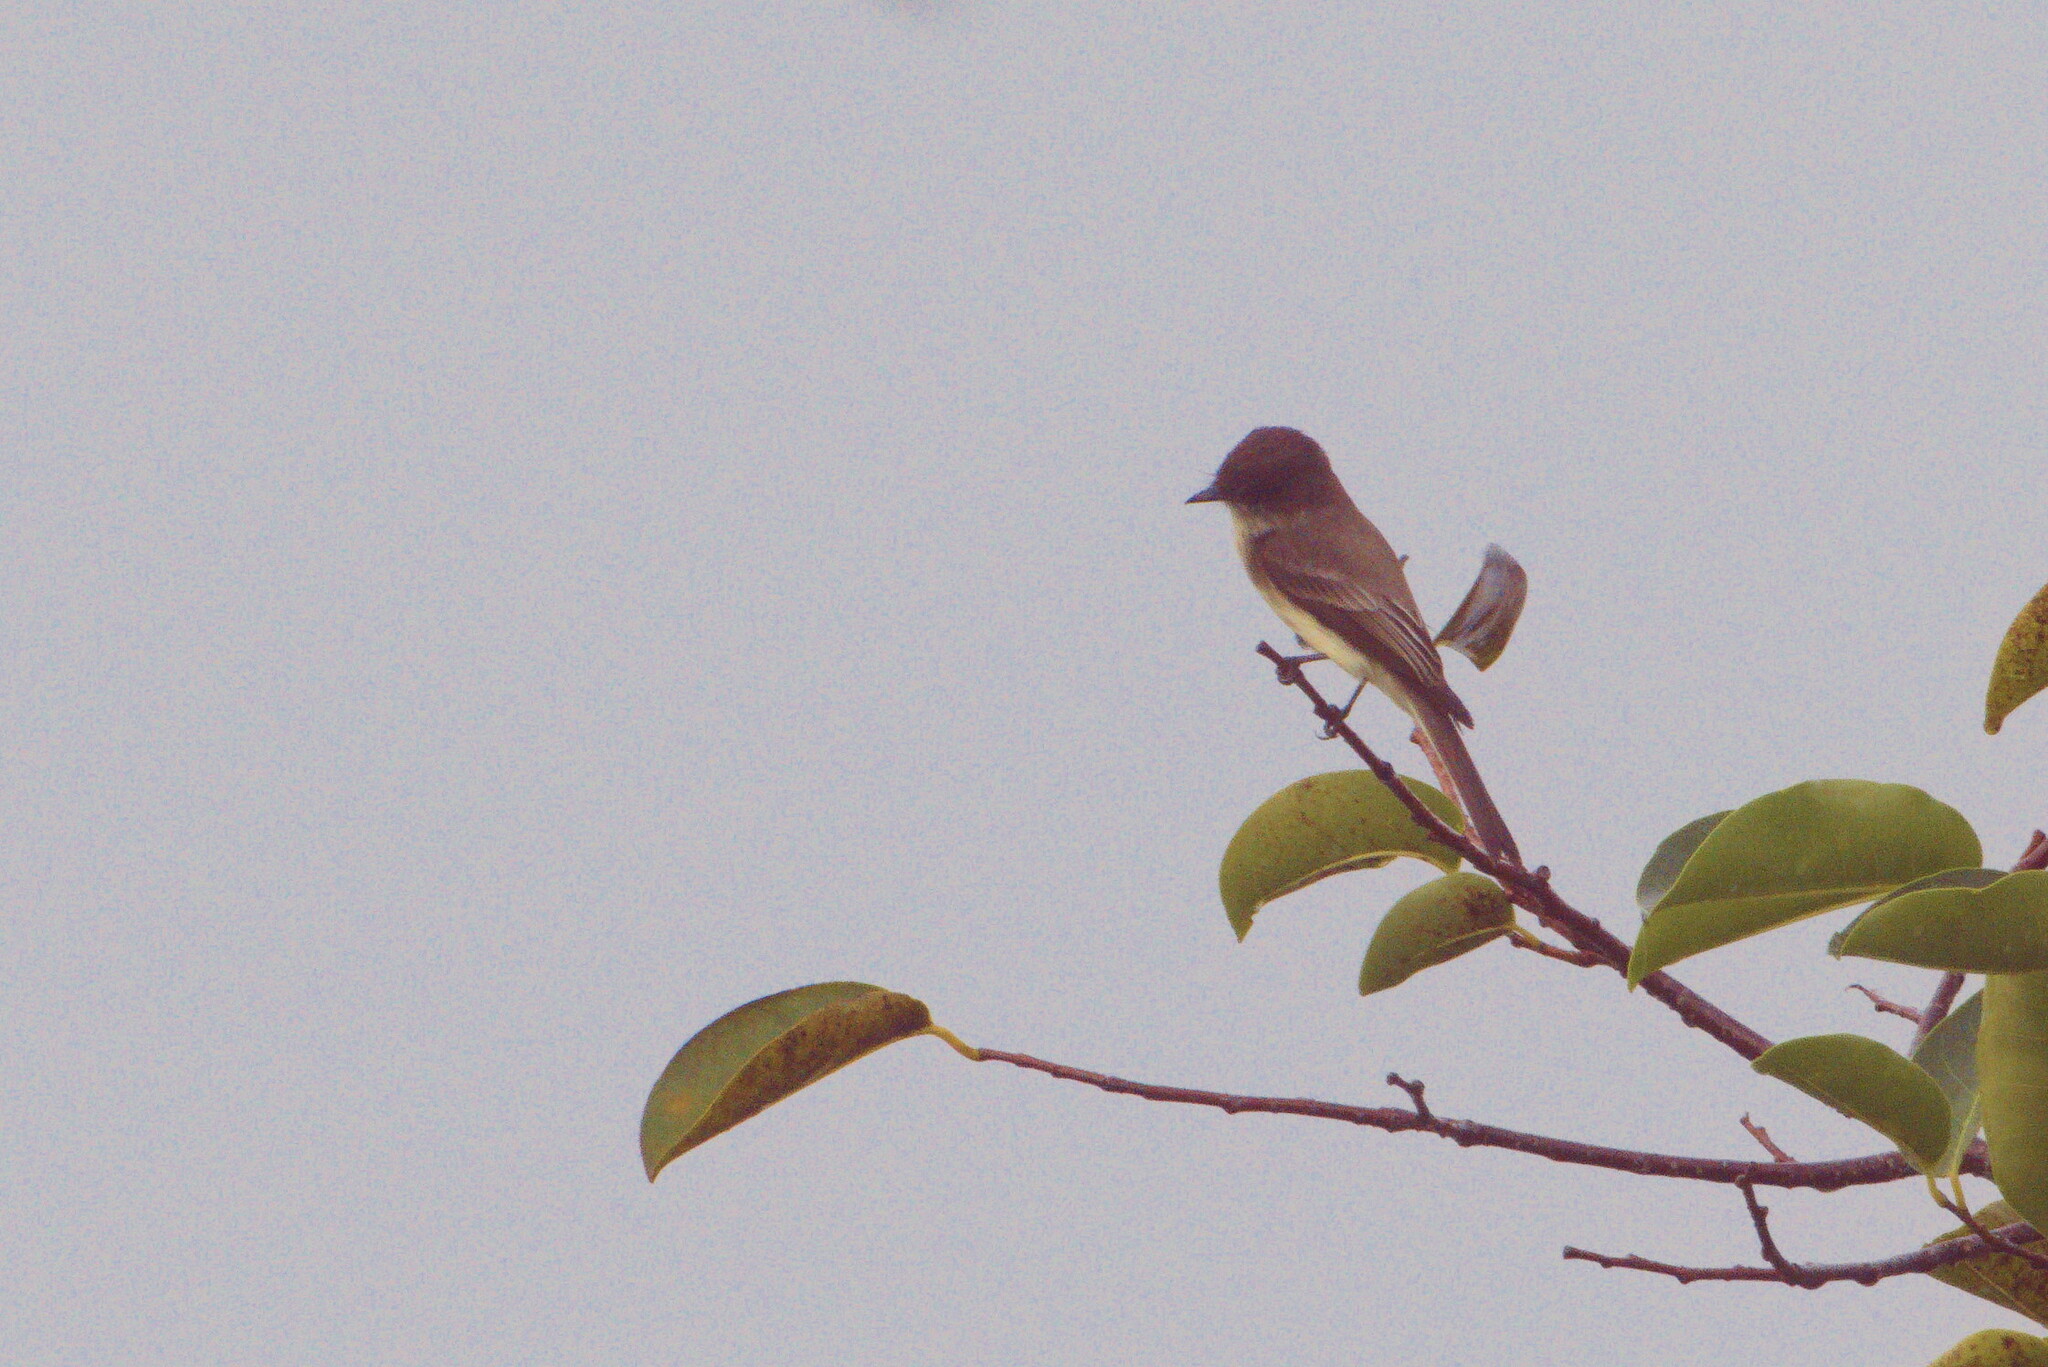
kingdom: Animalia
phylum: Chordata
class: Aves
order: Passeriformes
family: Tyrannidae
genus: Sayornis
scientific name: Sayornis phoebe
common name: Eastern phoebe
